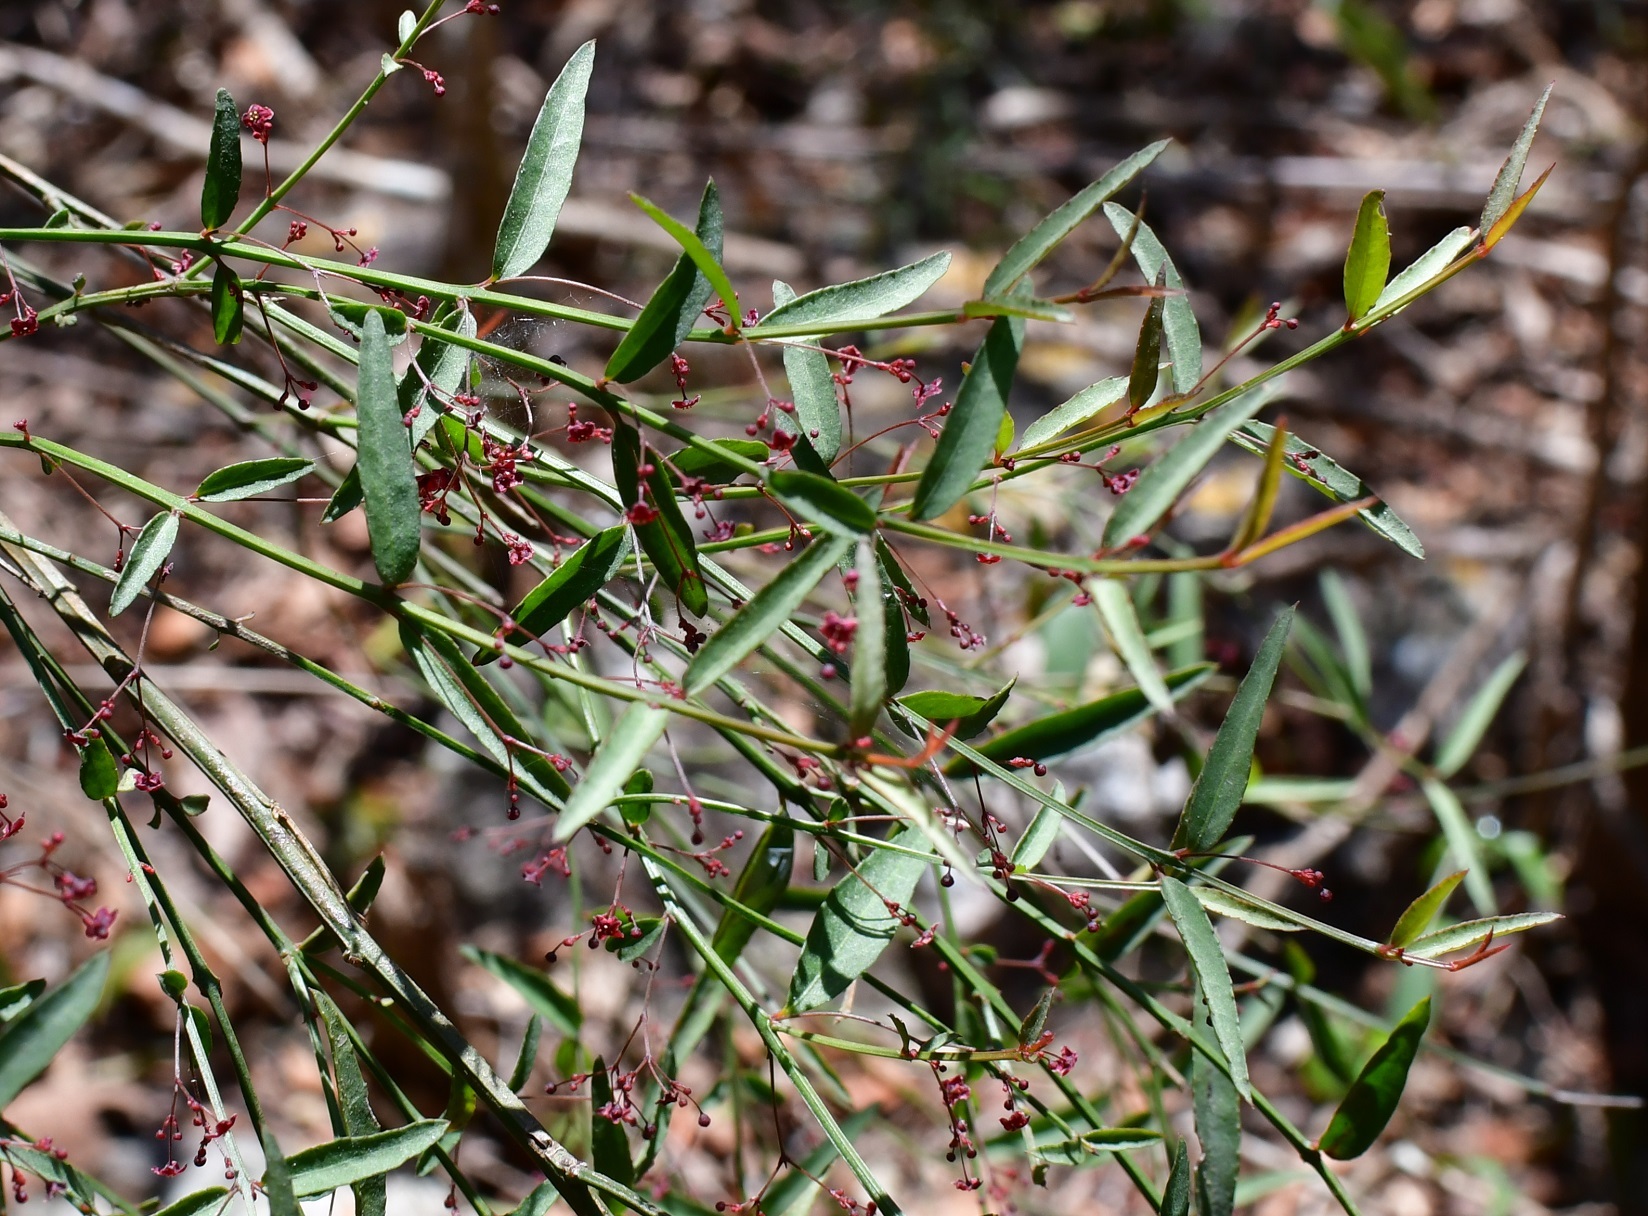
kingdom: Plantae
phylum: Tracheophyta
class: Magnoliopsida
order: Celastrales
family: Celastraceae
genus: Crossopetalum
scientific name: Crossopetalum uragoga
